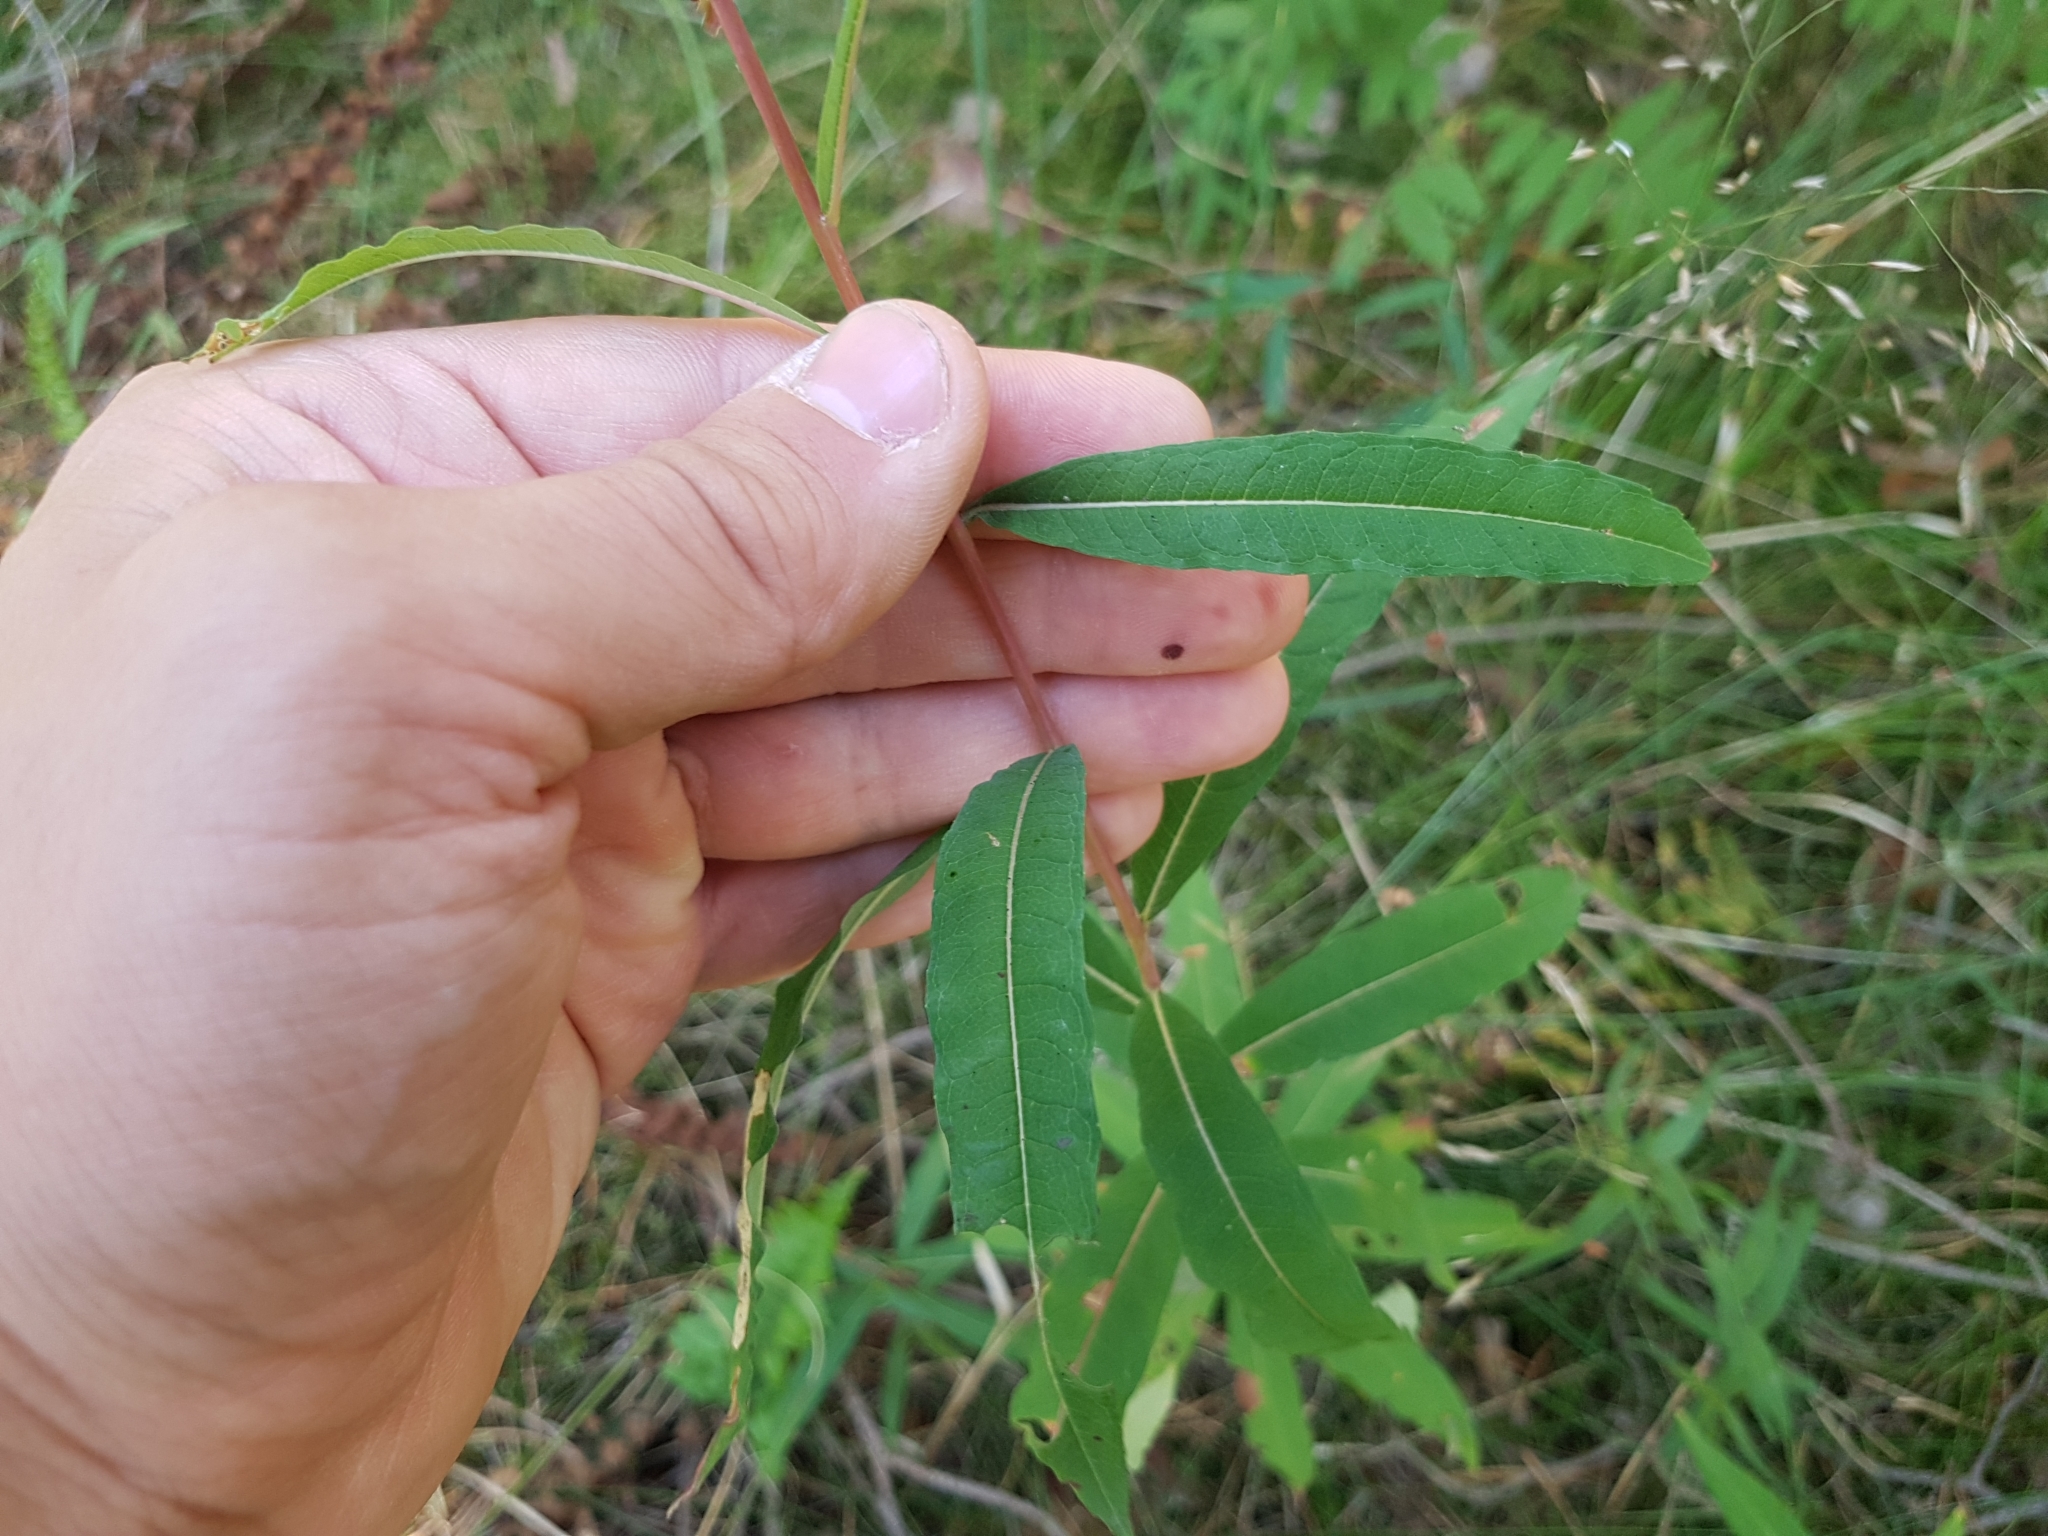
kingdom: Plantae
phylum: Tracheophyta
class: Magnoliopsida
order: Myrtales
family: Onagraceae
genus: Chamaenerion
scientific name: Chamaenerion angustifolium
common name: Fireweed
